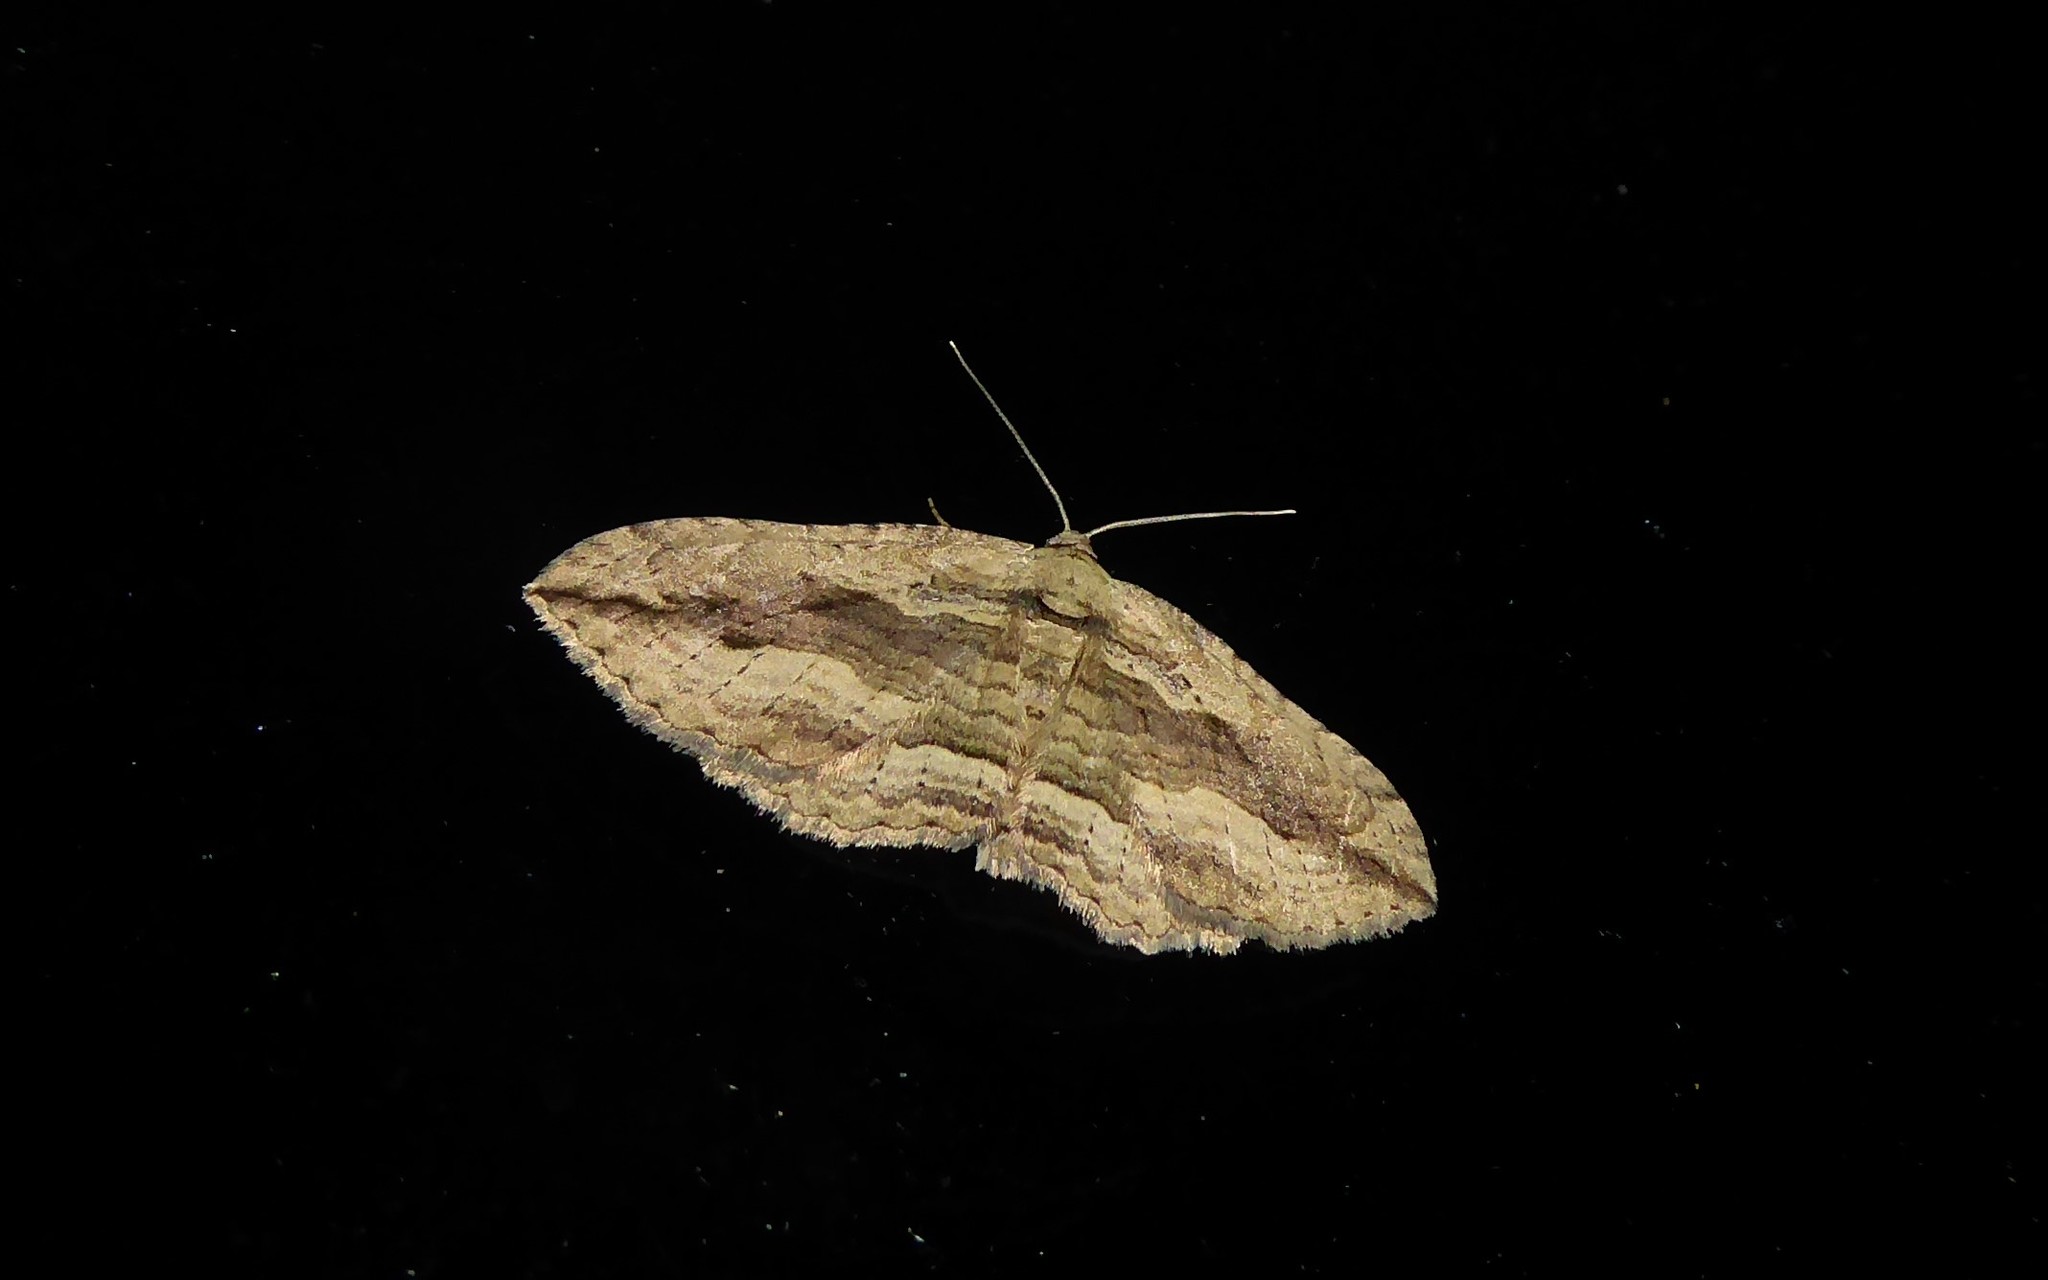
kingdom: Animalia
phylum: Arthropoda
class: Insecta
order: Lepidoptera
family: Geometridae
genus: Austrocidaria
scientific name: Austrocidaria gobiata
